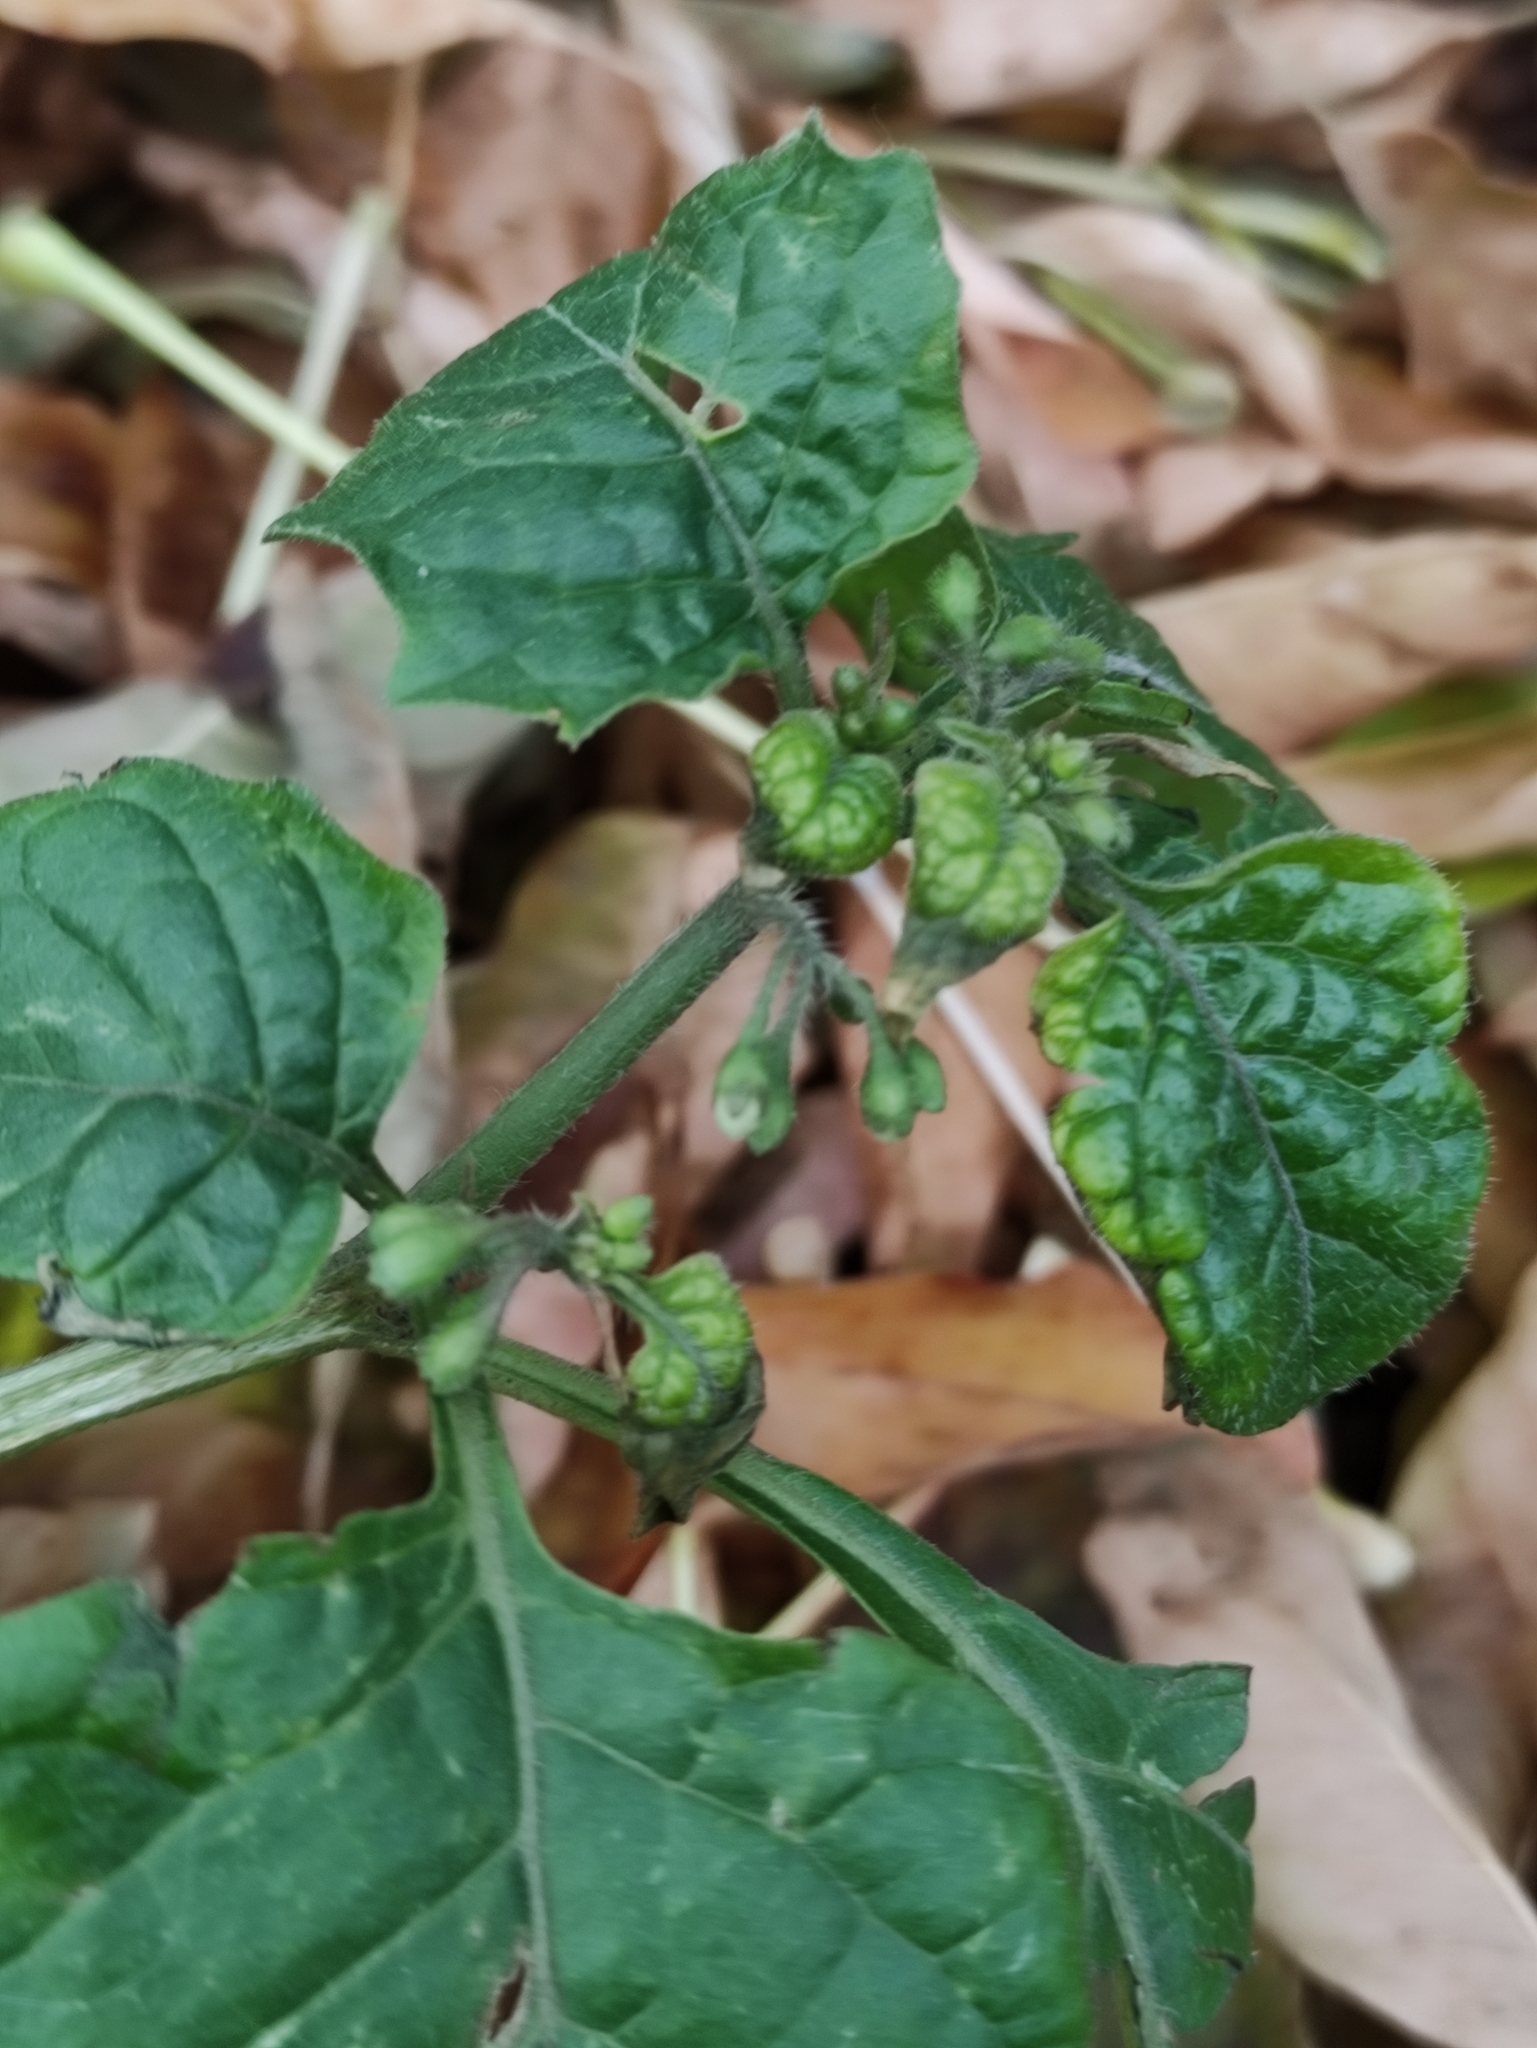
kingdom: Plantae
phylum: Tracheophyta
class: Magnoliopsida
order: Solanales
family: Solanaceae
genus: Solanum
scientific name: Solanum nigrum
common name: Black nightshade
